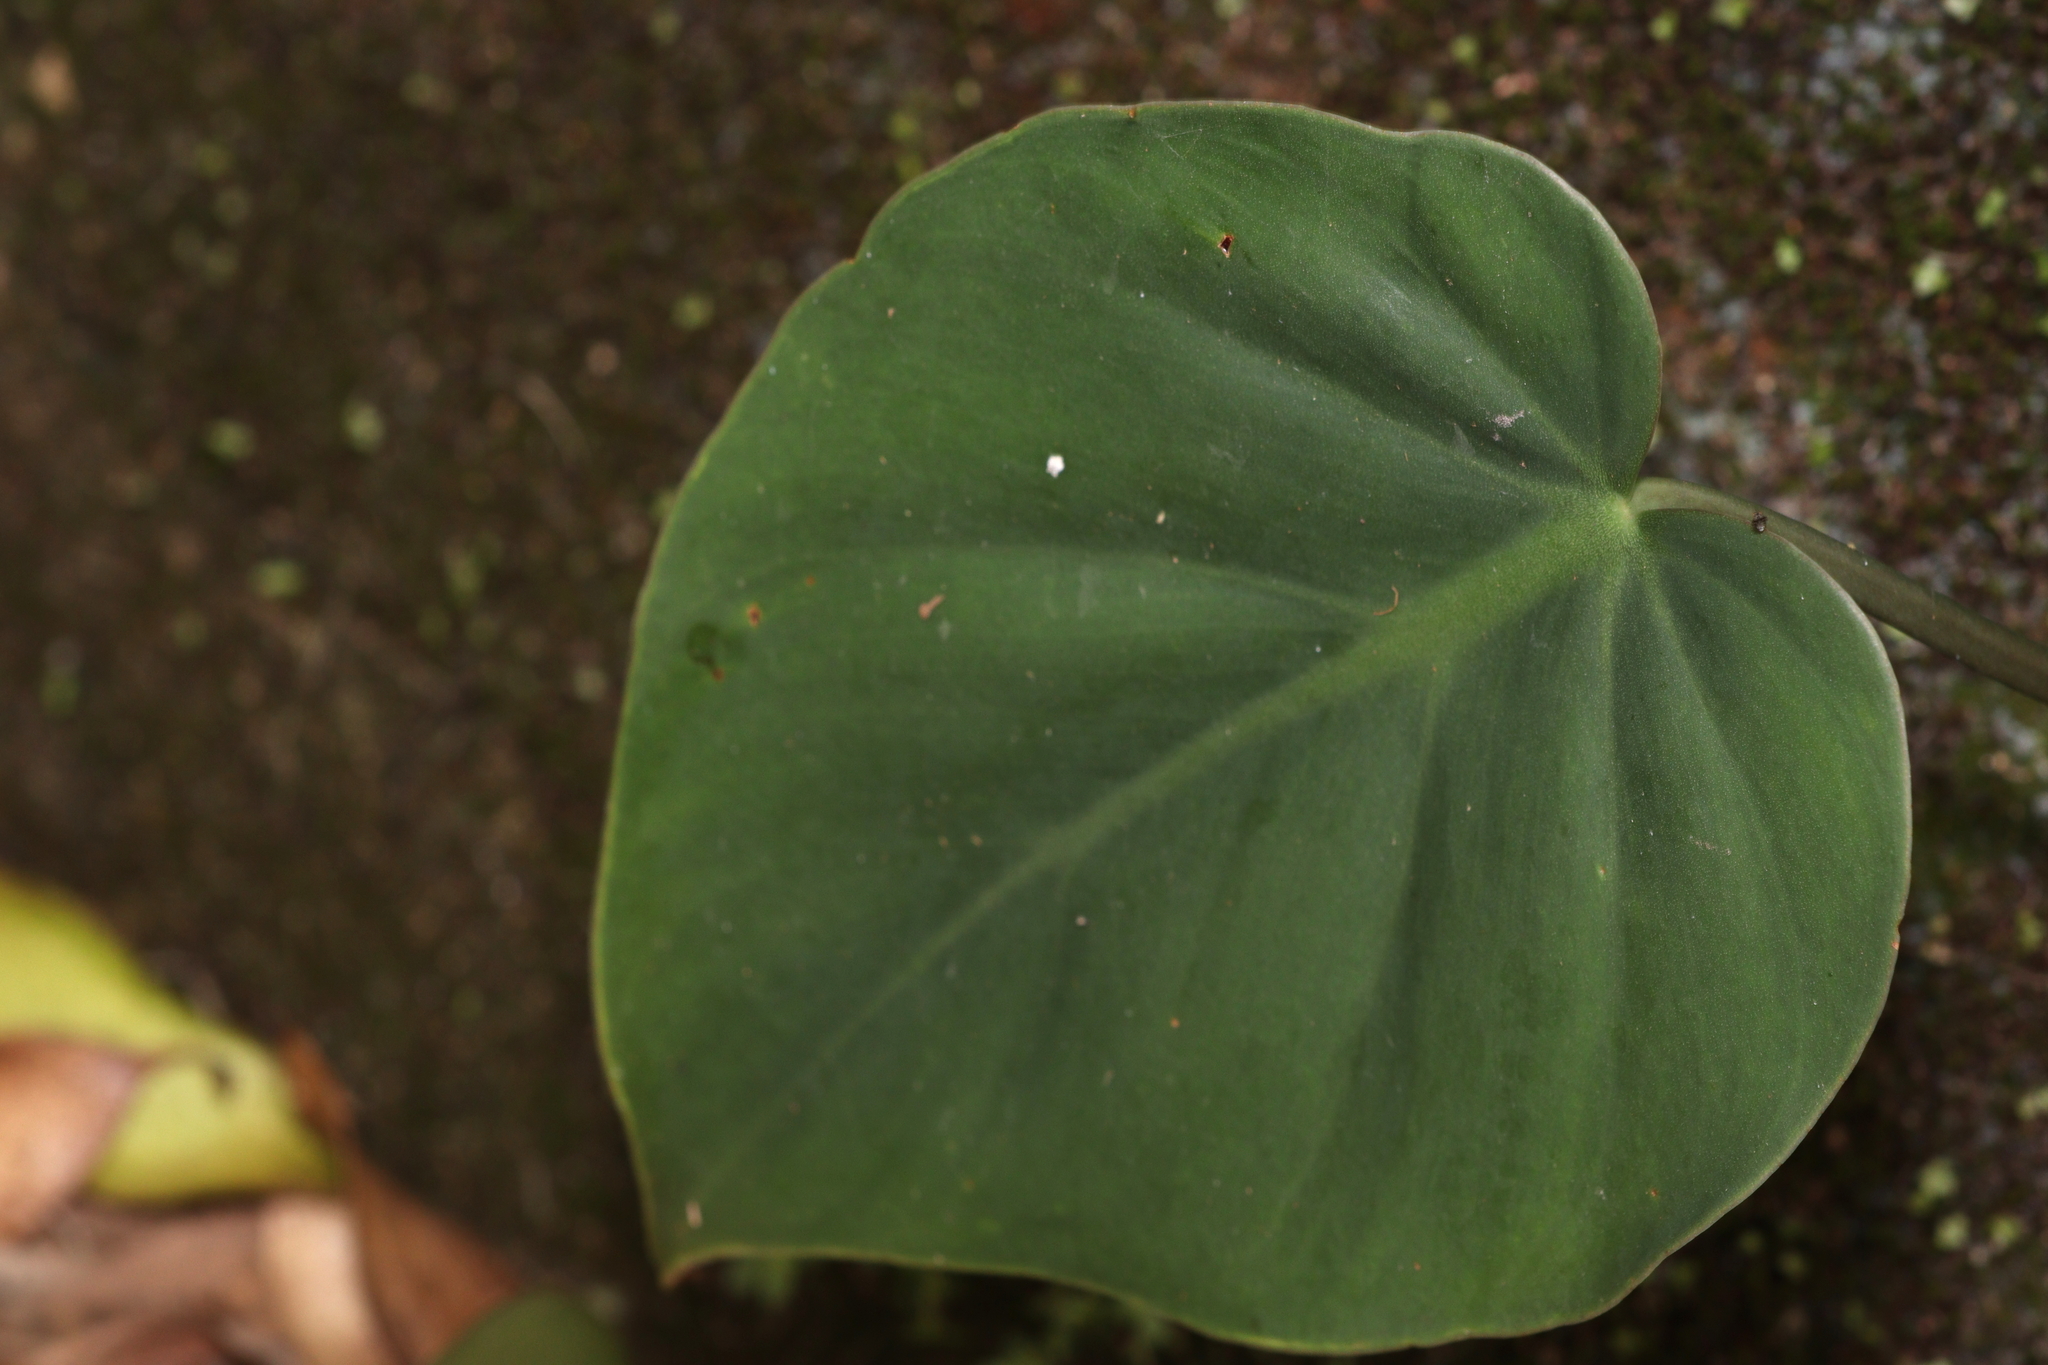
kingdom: Plantae
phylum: Tracheophyta
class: Liliopsida
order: Alismatales
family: Araceae
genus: Philodendron
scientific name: Philodendron hederaceum
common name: Vilevine
